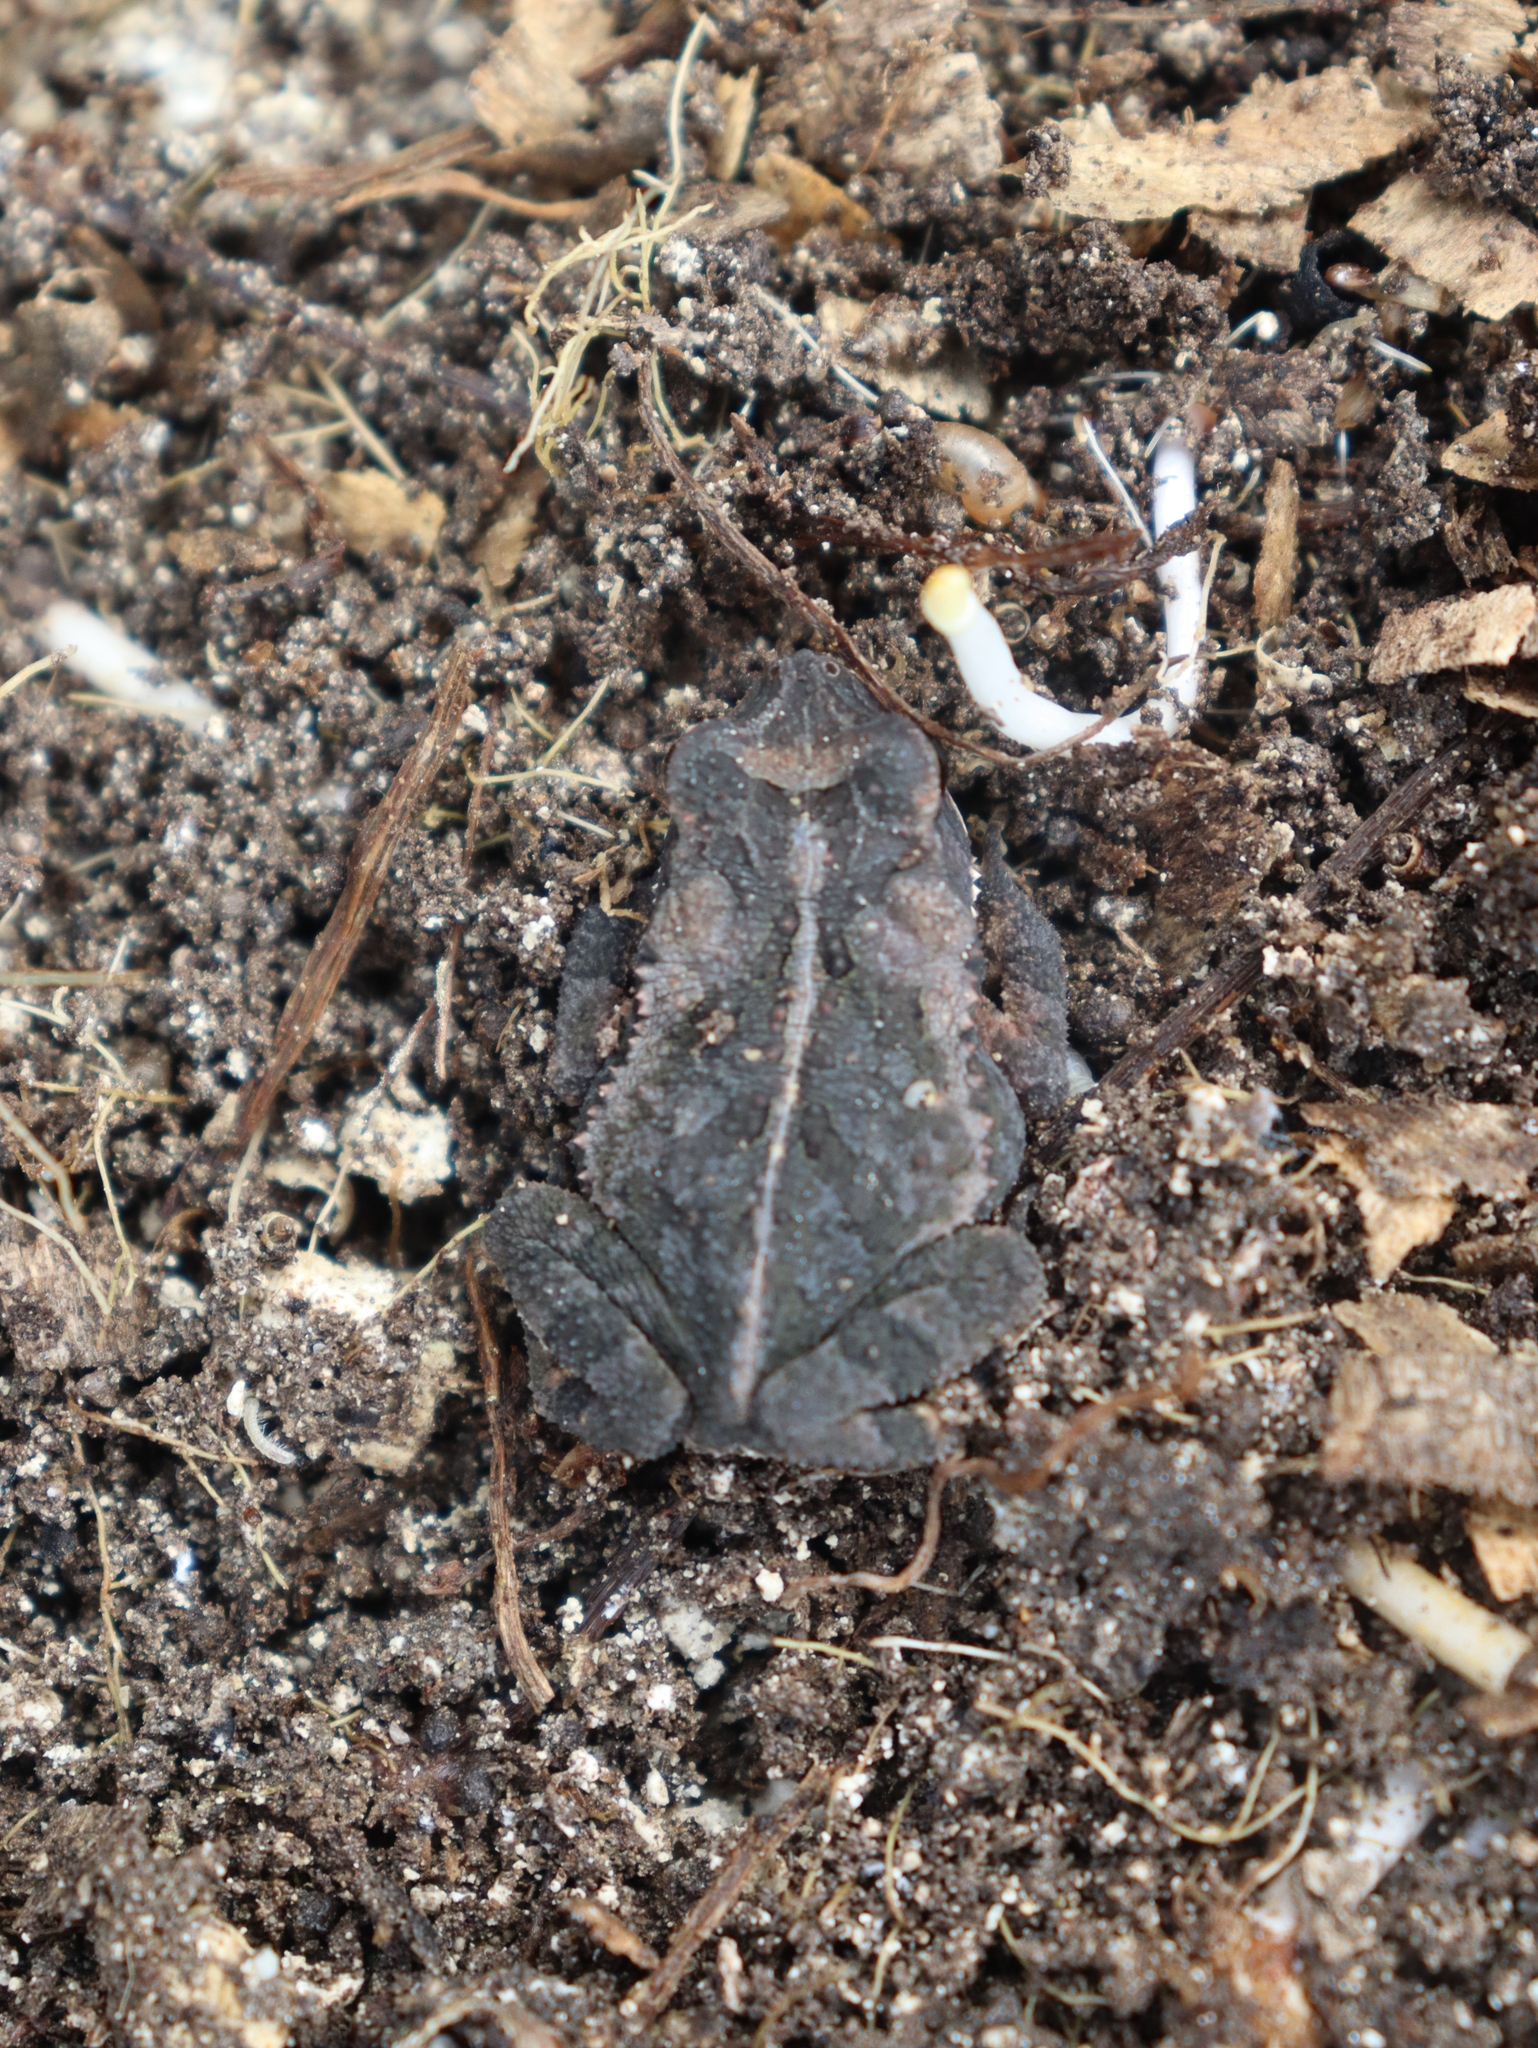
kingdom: Animalia
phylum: Chordata
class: Amphibia
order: Anura
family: Bufonidae
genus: Incilius
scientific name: Incilius valliceps
